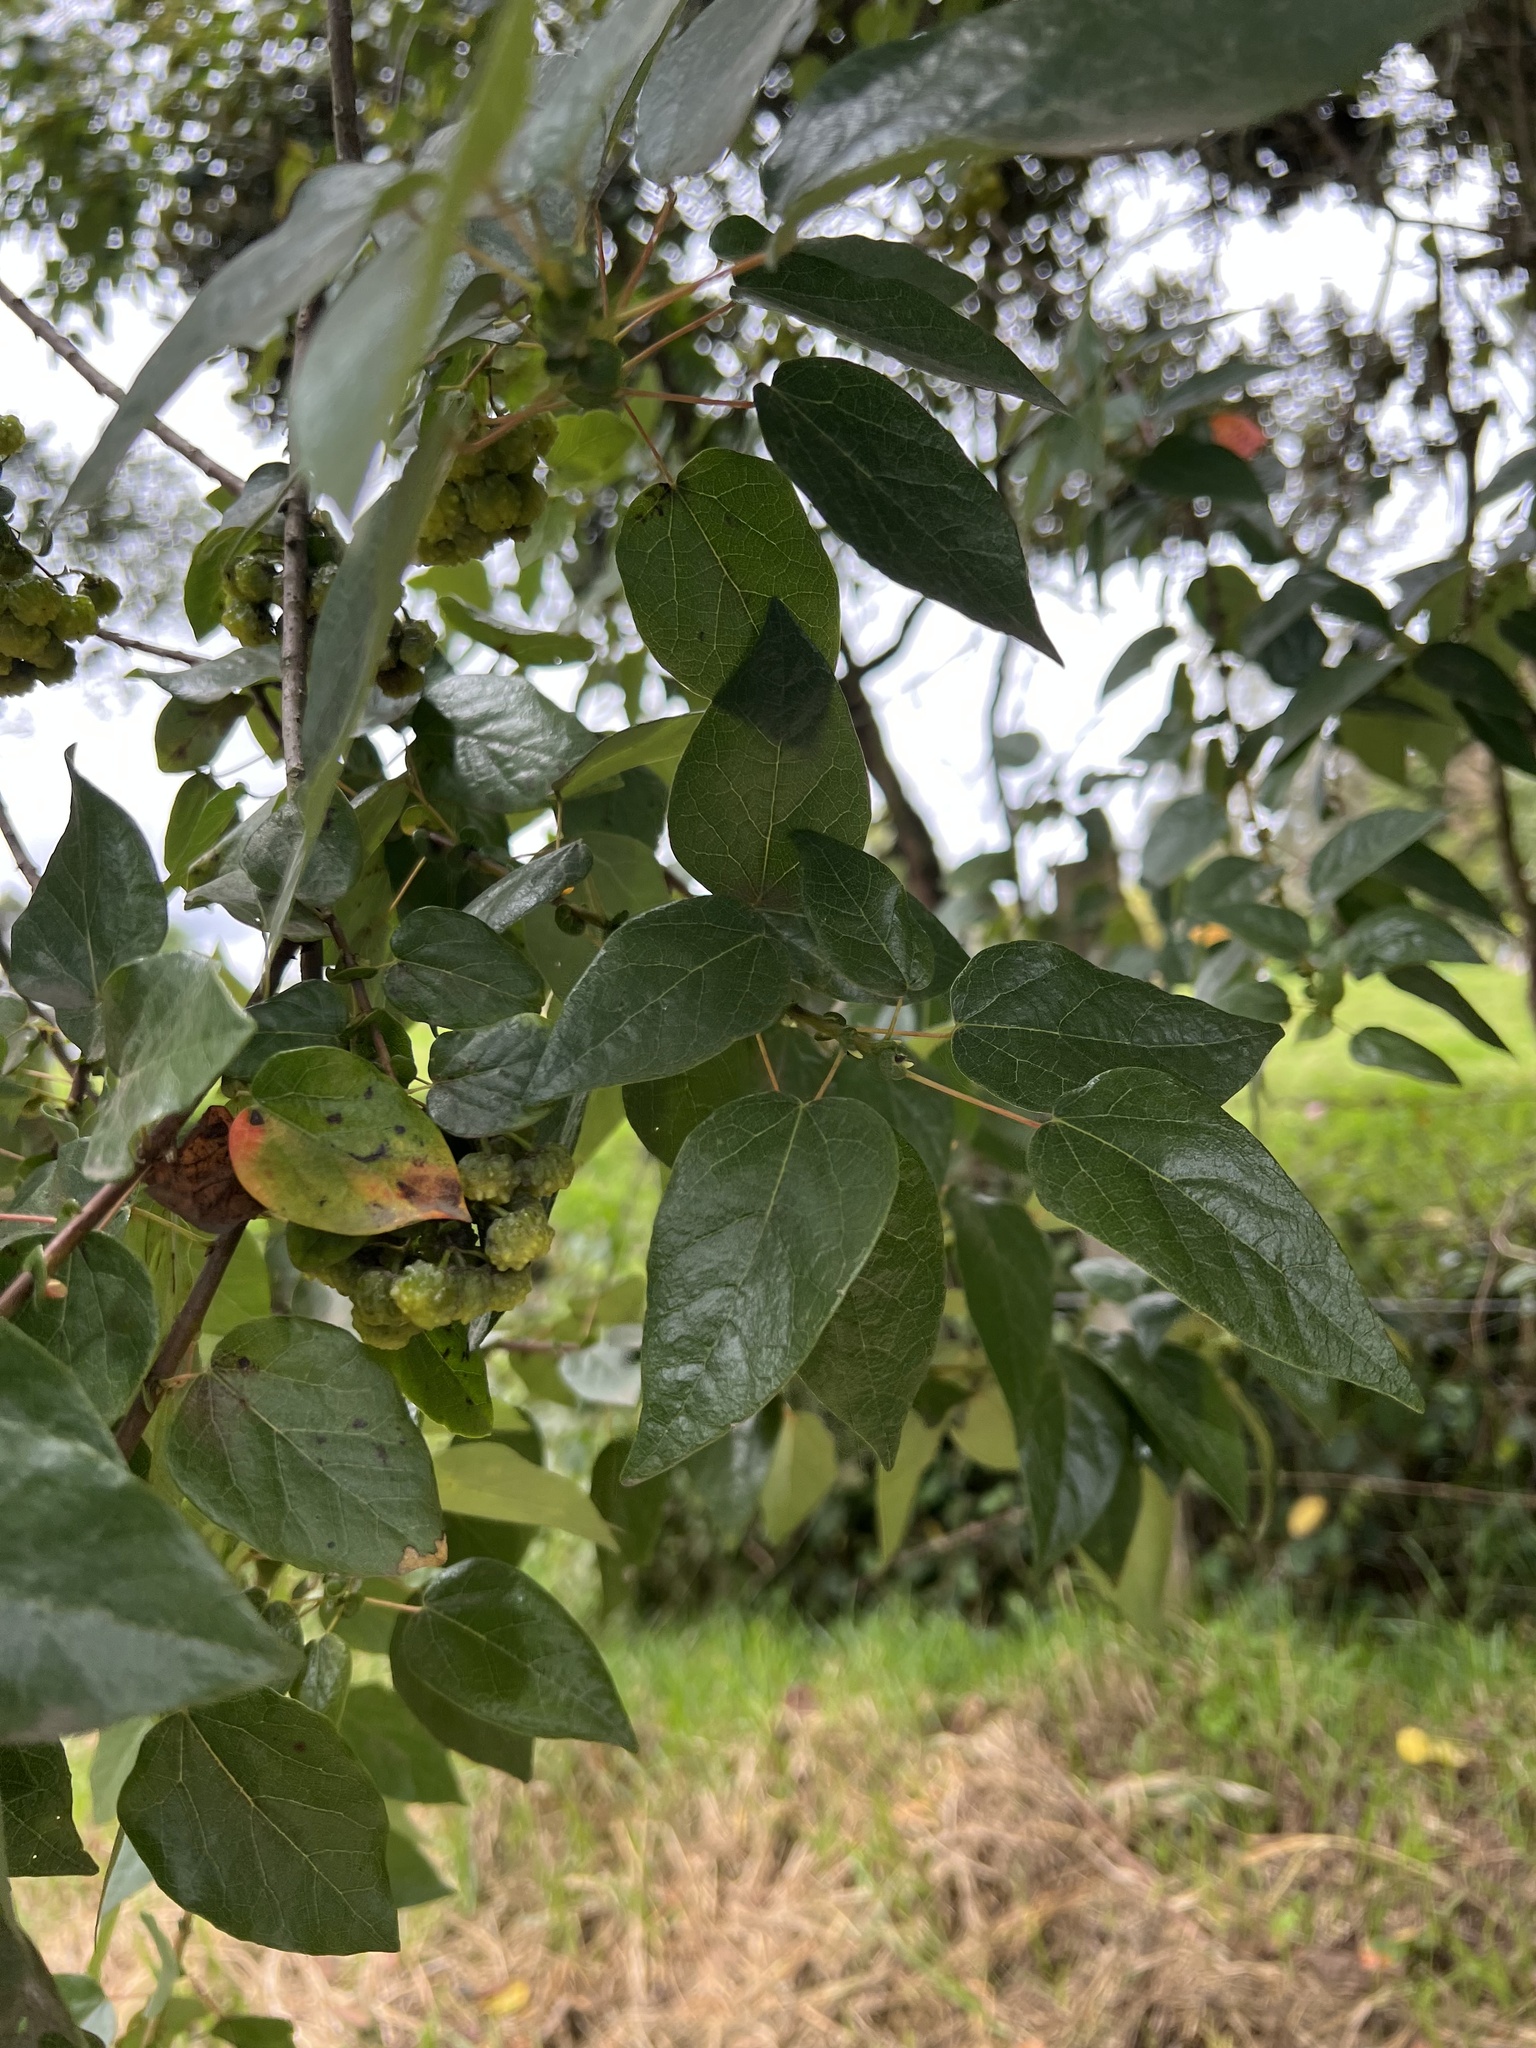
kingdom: Plantae
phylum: Tracheophyta
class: Magnoliopsida
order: Oxalidales
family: Elaeocarpaceae
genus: Vallea
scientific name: Vallea stipularis
